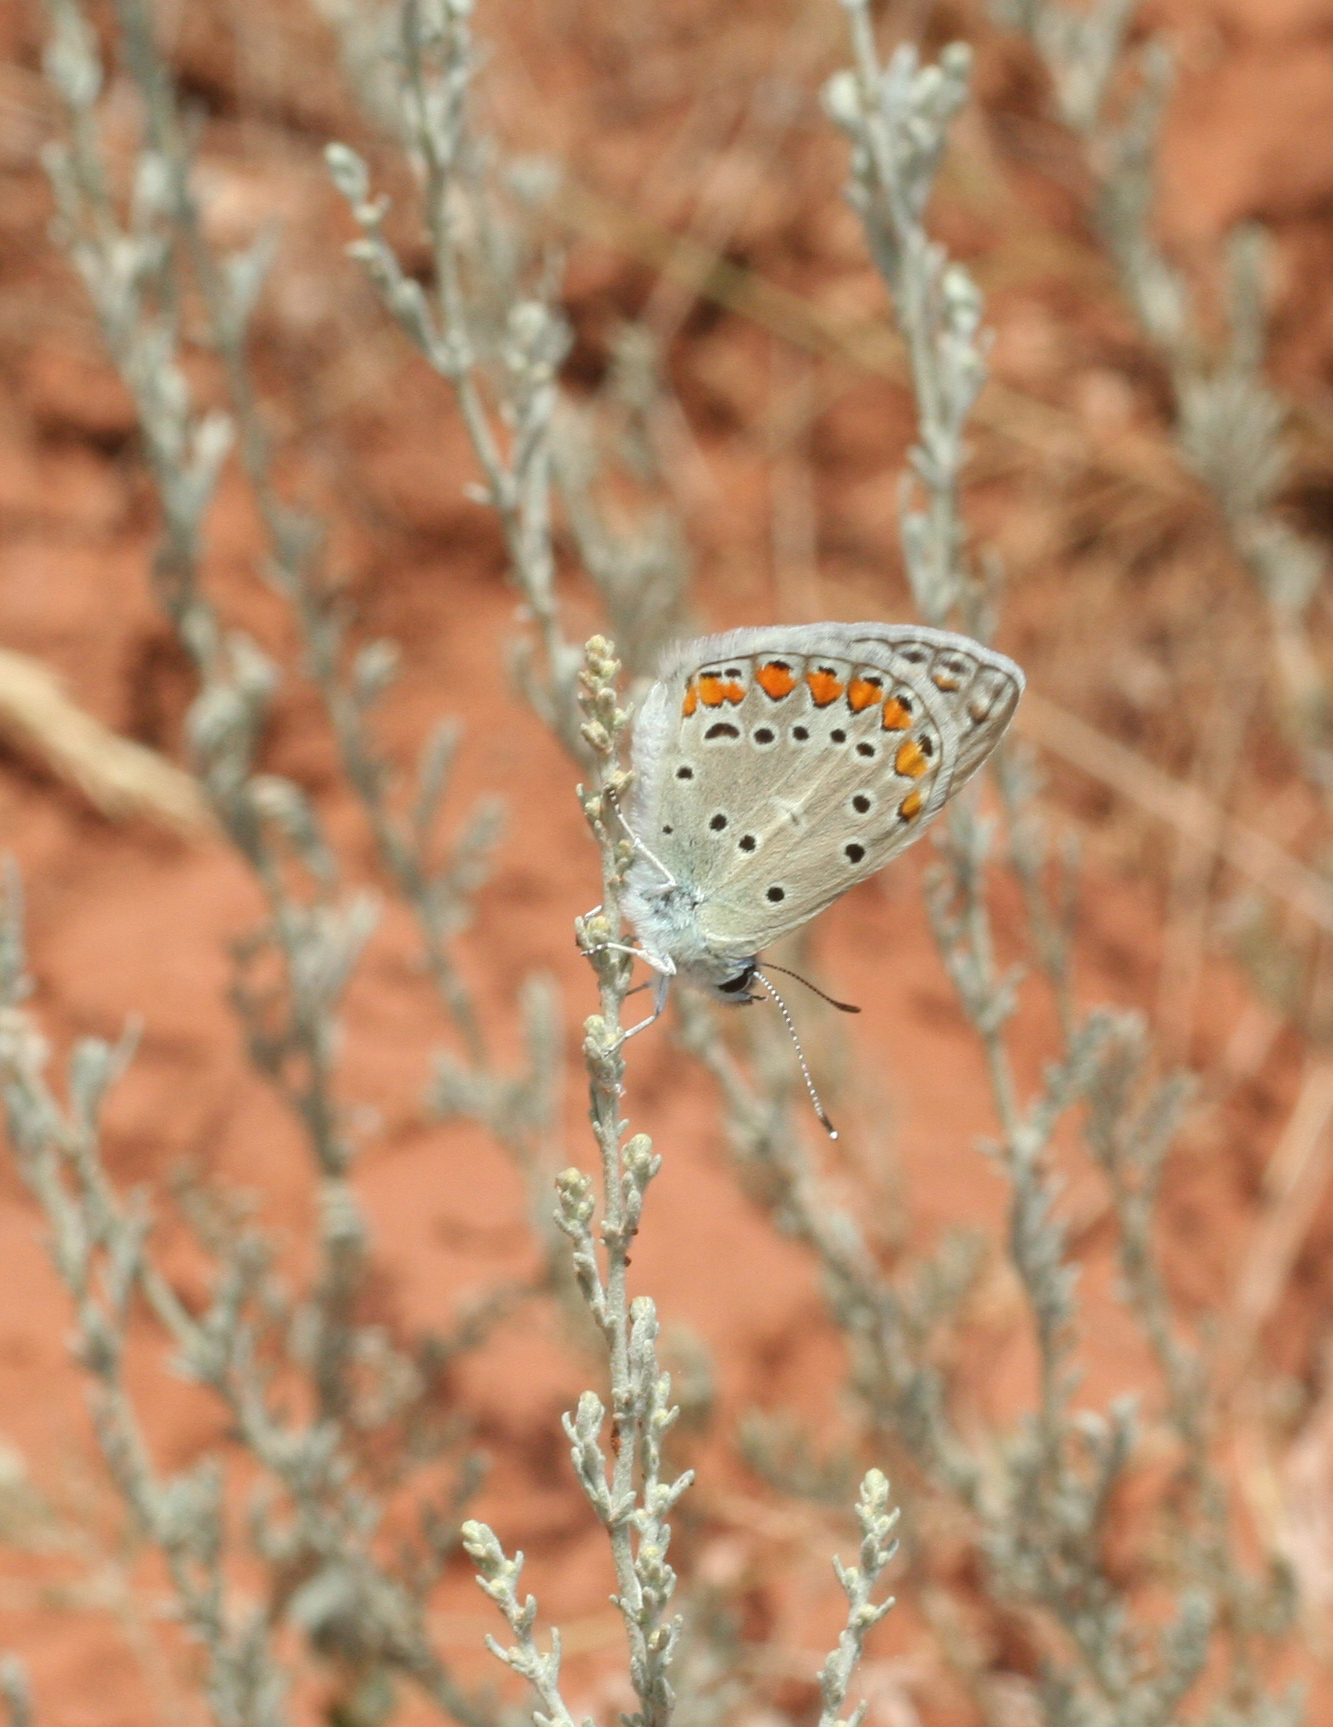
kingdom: Animalia
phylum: Arthropoda
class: Insecta
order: Lepidoptera
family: Lycaenidae
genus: Polyommatus
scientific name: Polyommatus icarus
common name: Common blue
